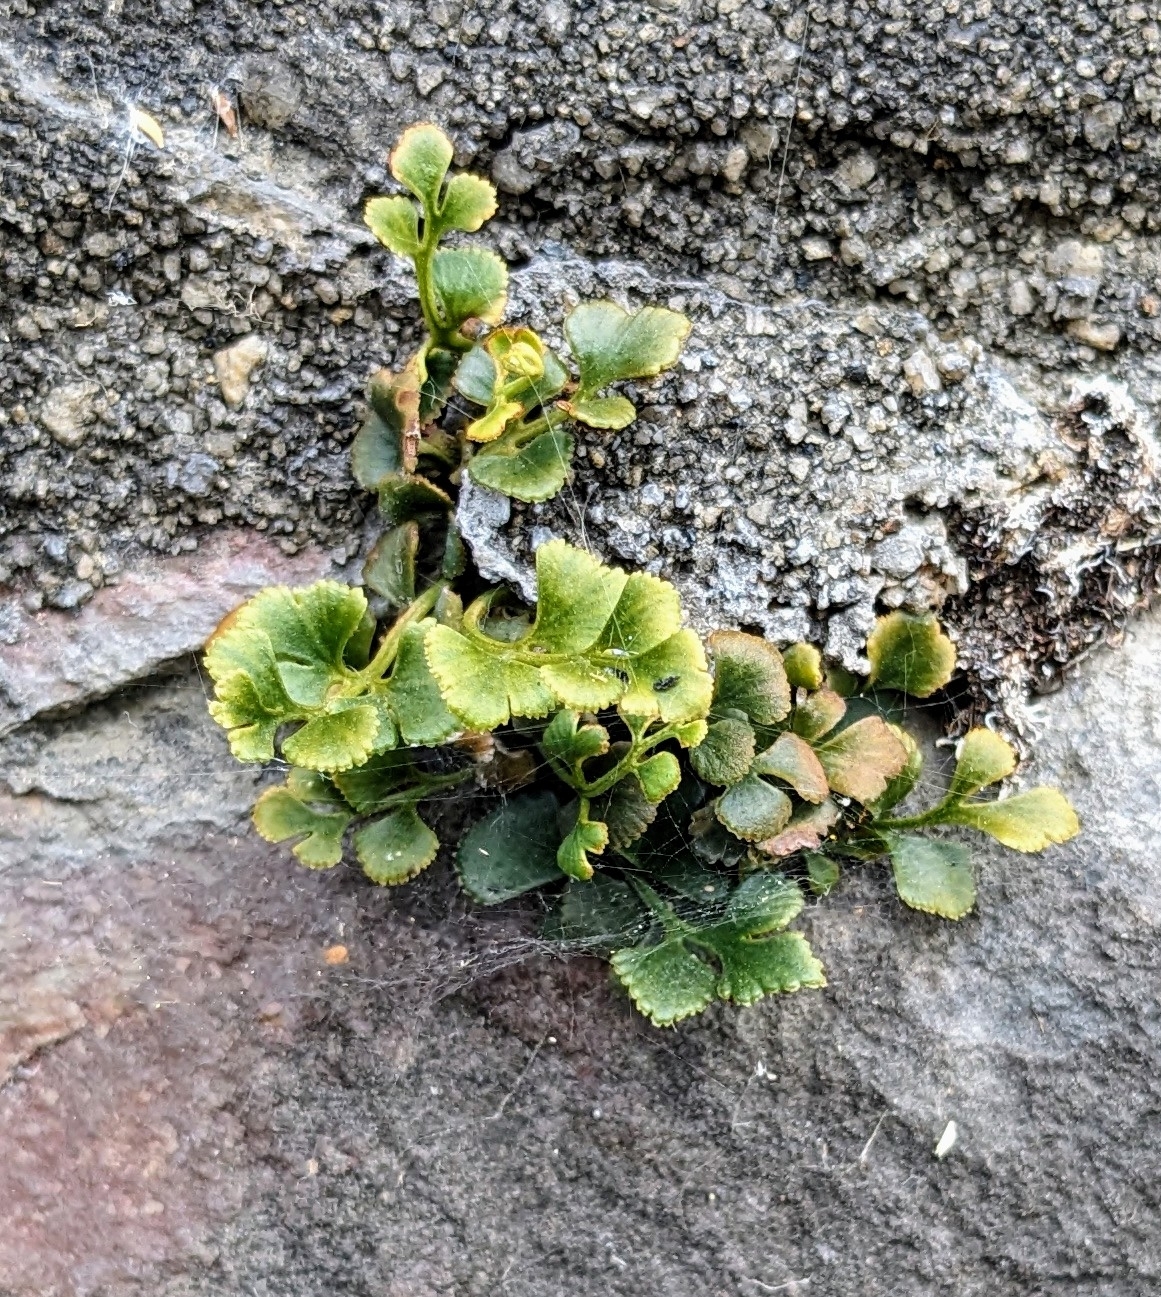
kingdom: Plantae
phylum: Tracheophyta
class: Polypodiopsida
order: Polypodiales
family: Aspleniaceae
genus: Asplenium
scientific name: Asplenium ruta-muraria
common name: Wall-rue
